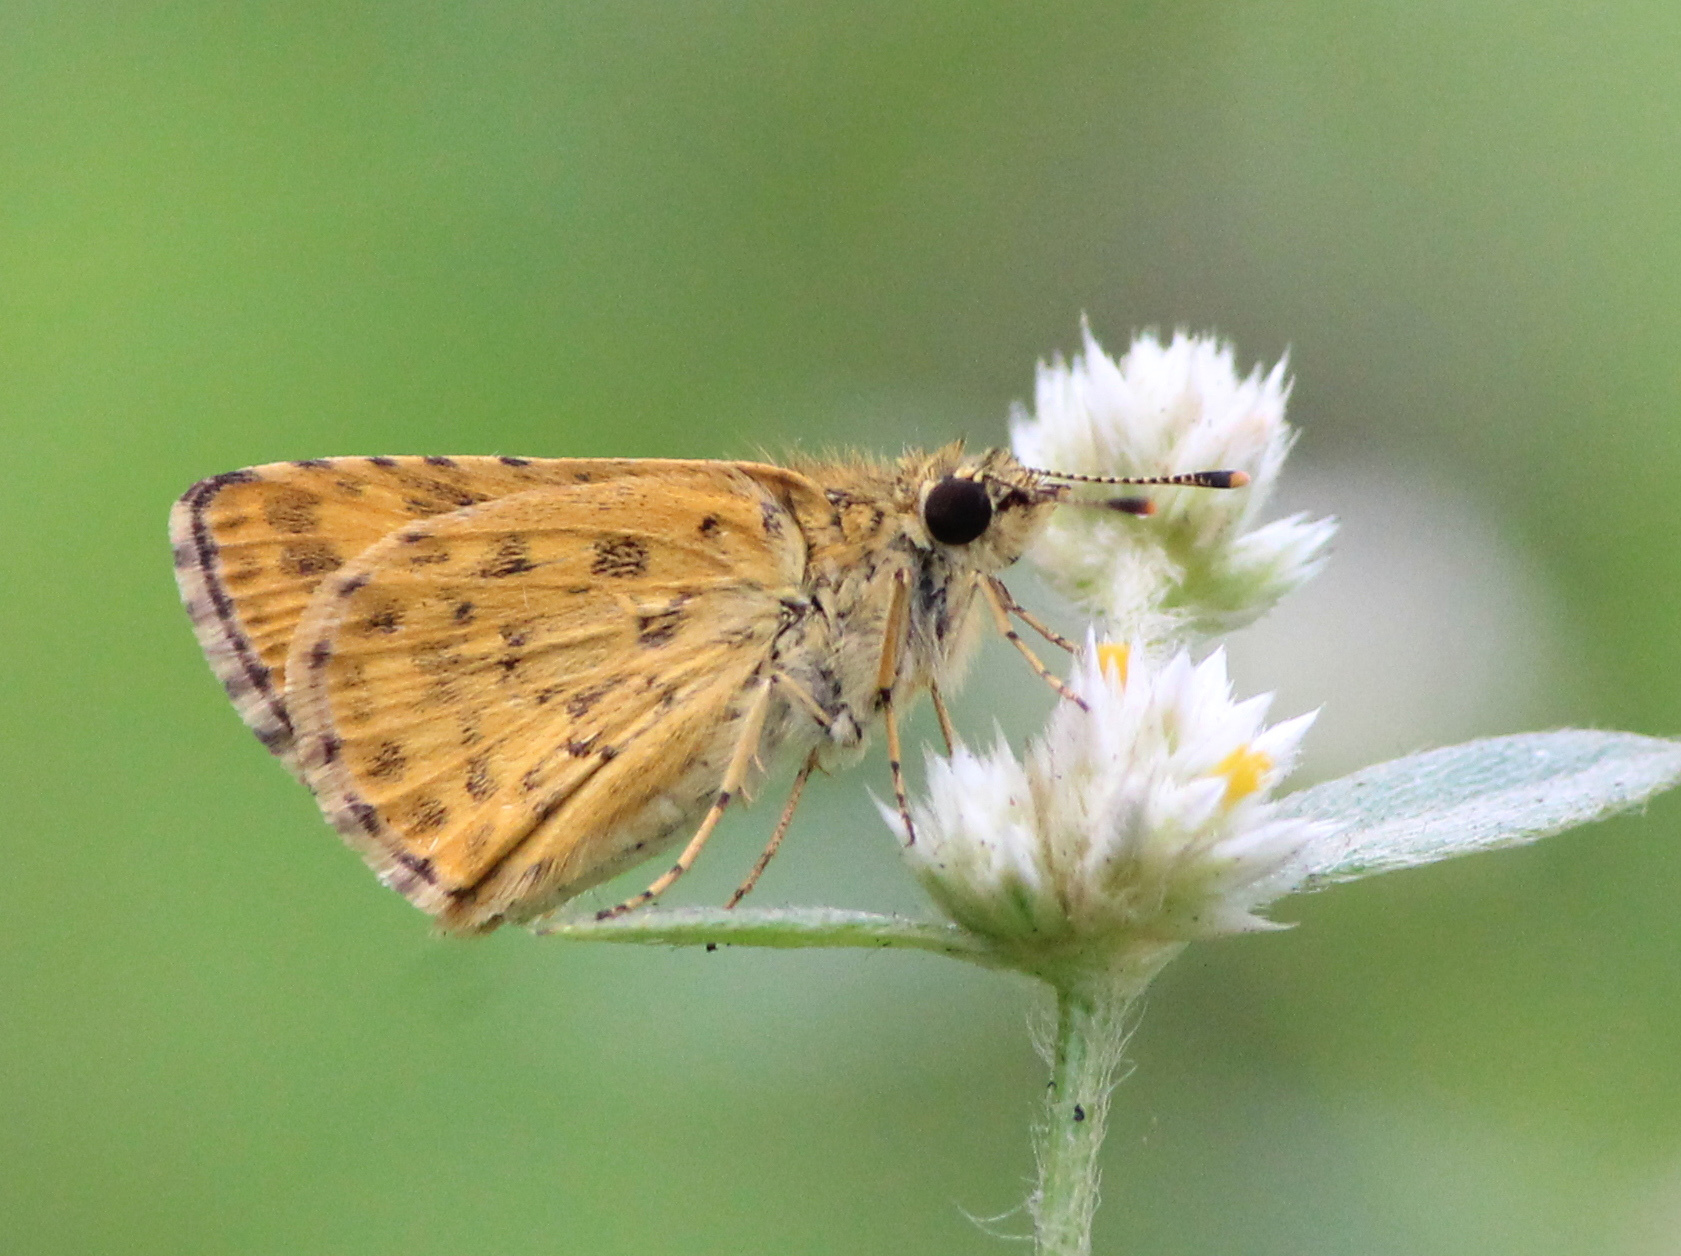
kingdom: Animalia
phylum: Arthropoda
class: Insecta
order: Lepidoptera
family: Hesperiidae
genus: Ampittia
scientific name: Ampittia dioscorides
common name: Common bush hopper
